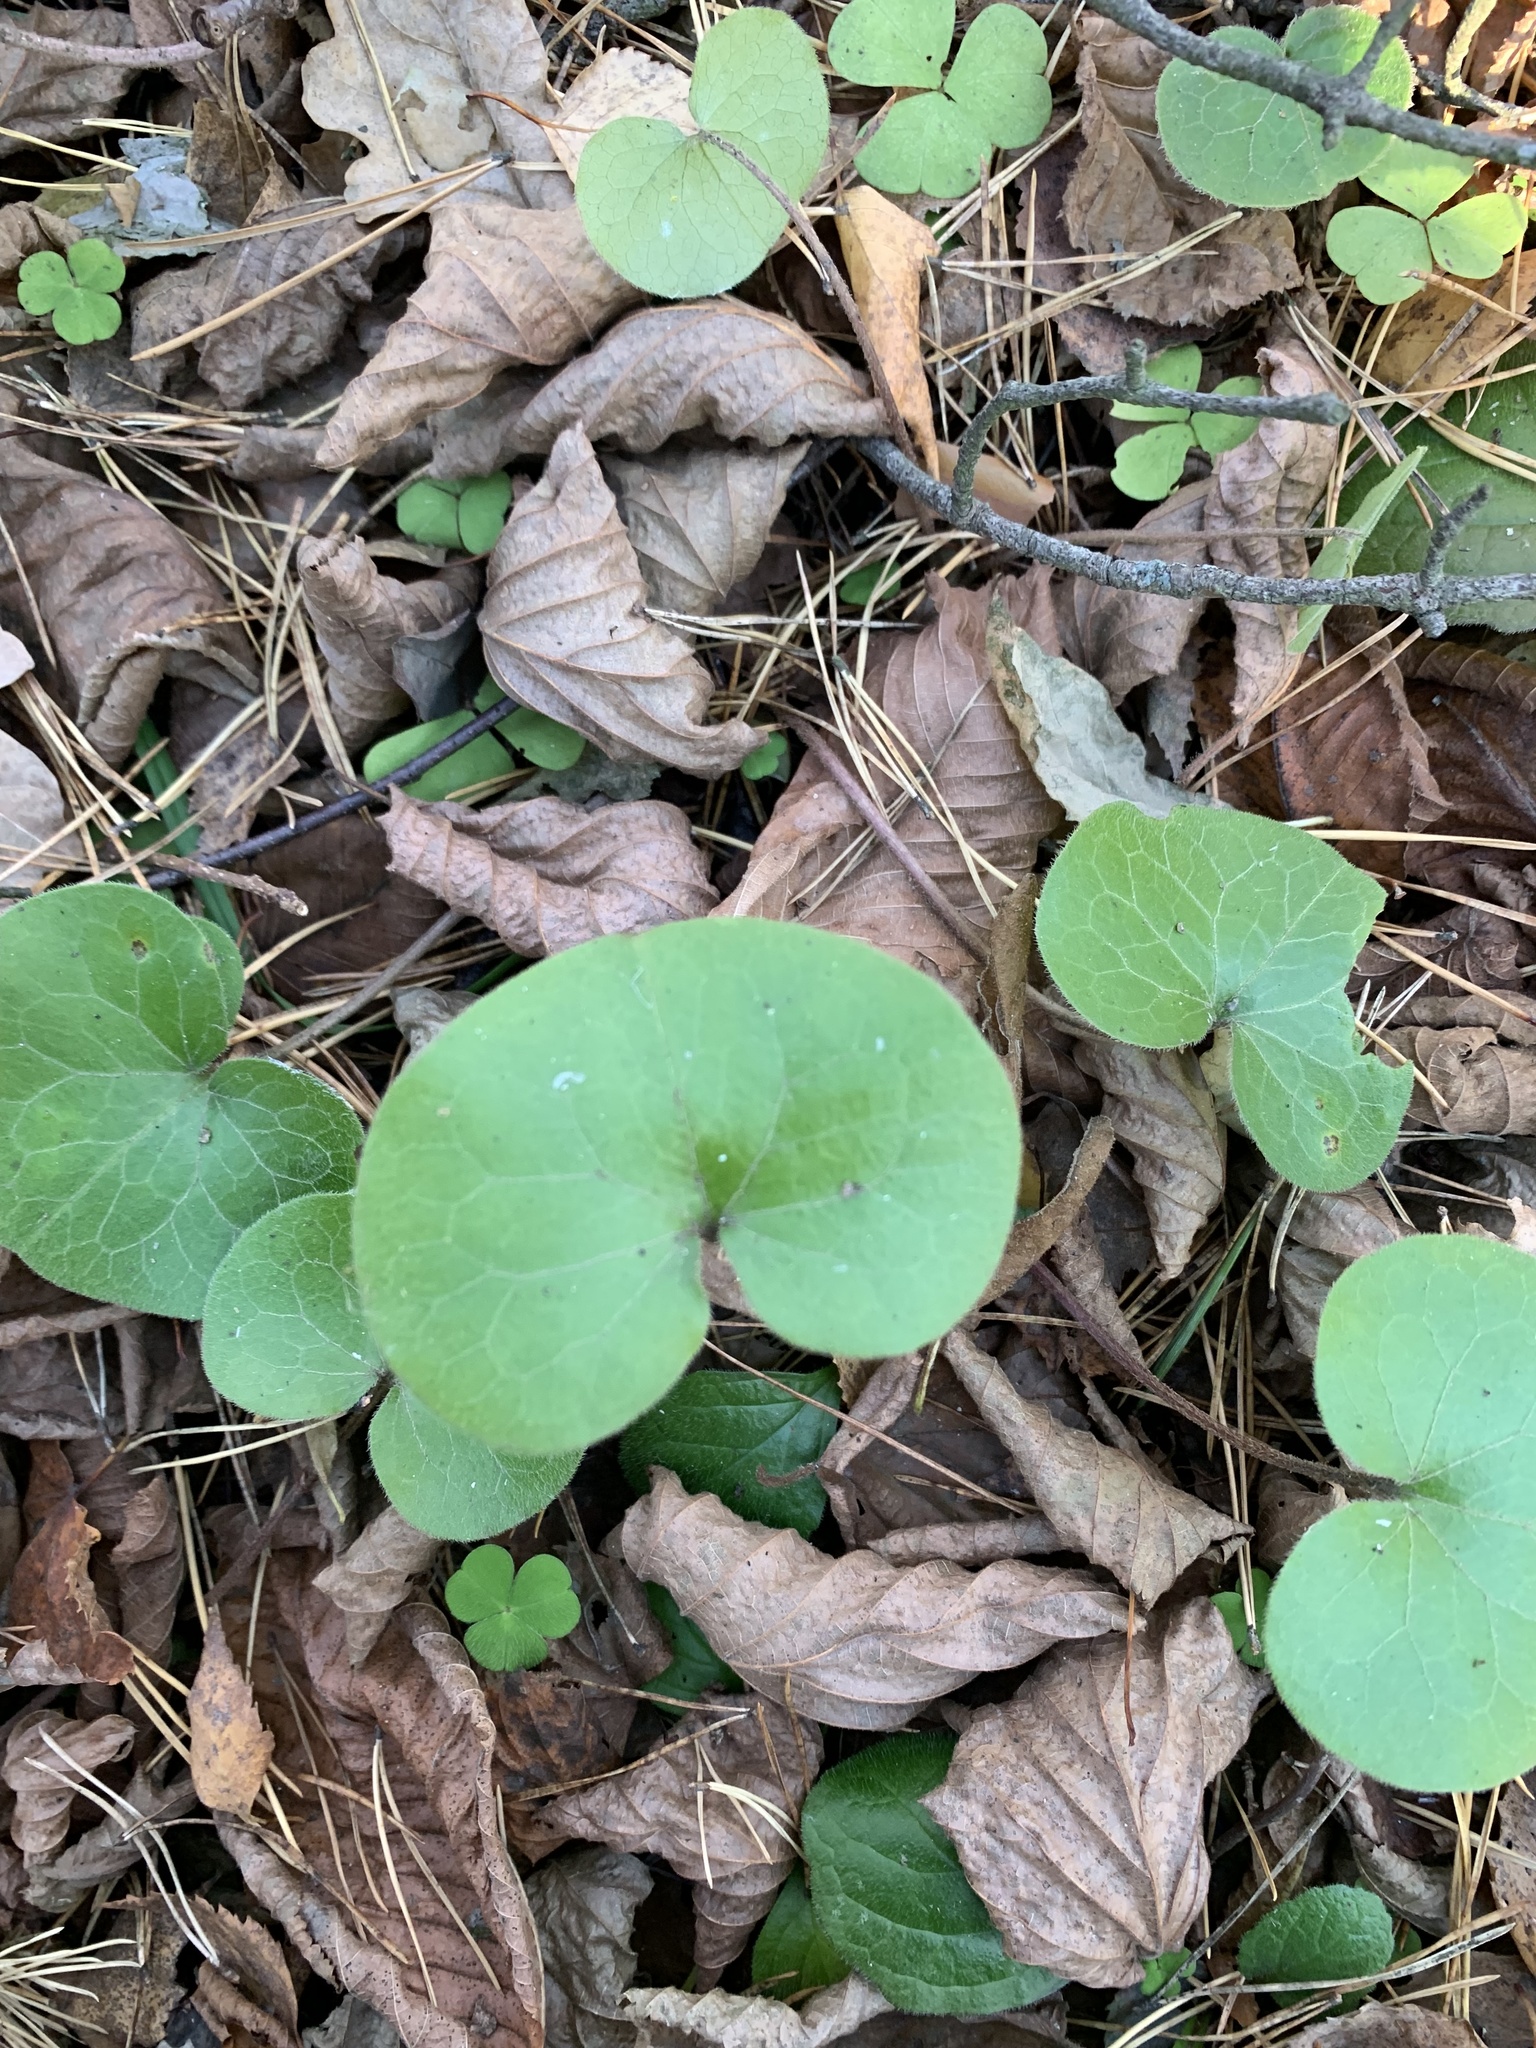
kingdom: Plantae
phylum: Tracheophyta
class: Magnoliopsida
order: Piperales
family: Aristolochiaceae
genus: Asarum
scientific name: Asarum europaeum
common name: Asarabacca
